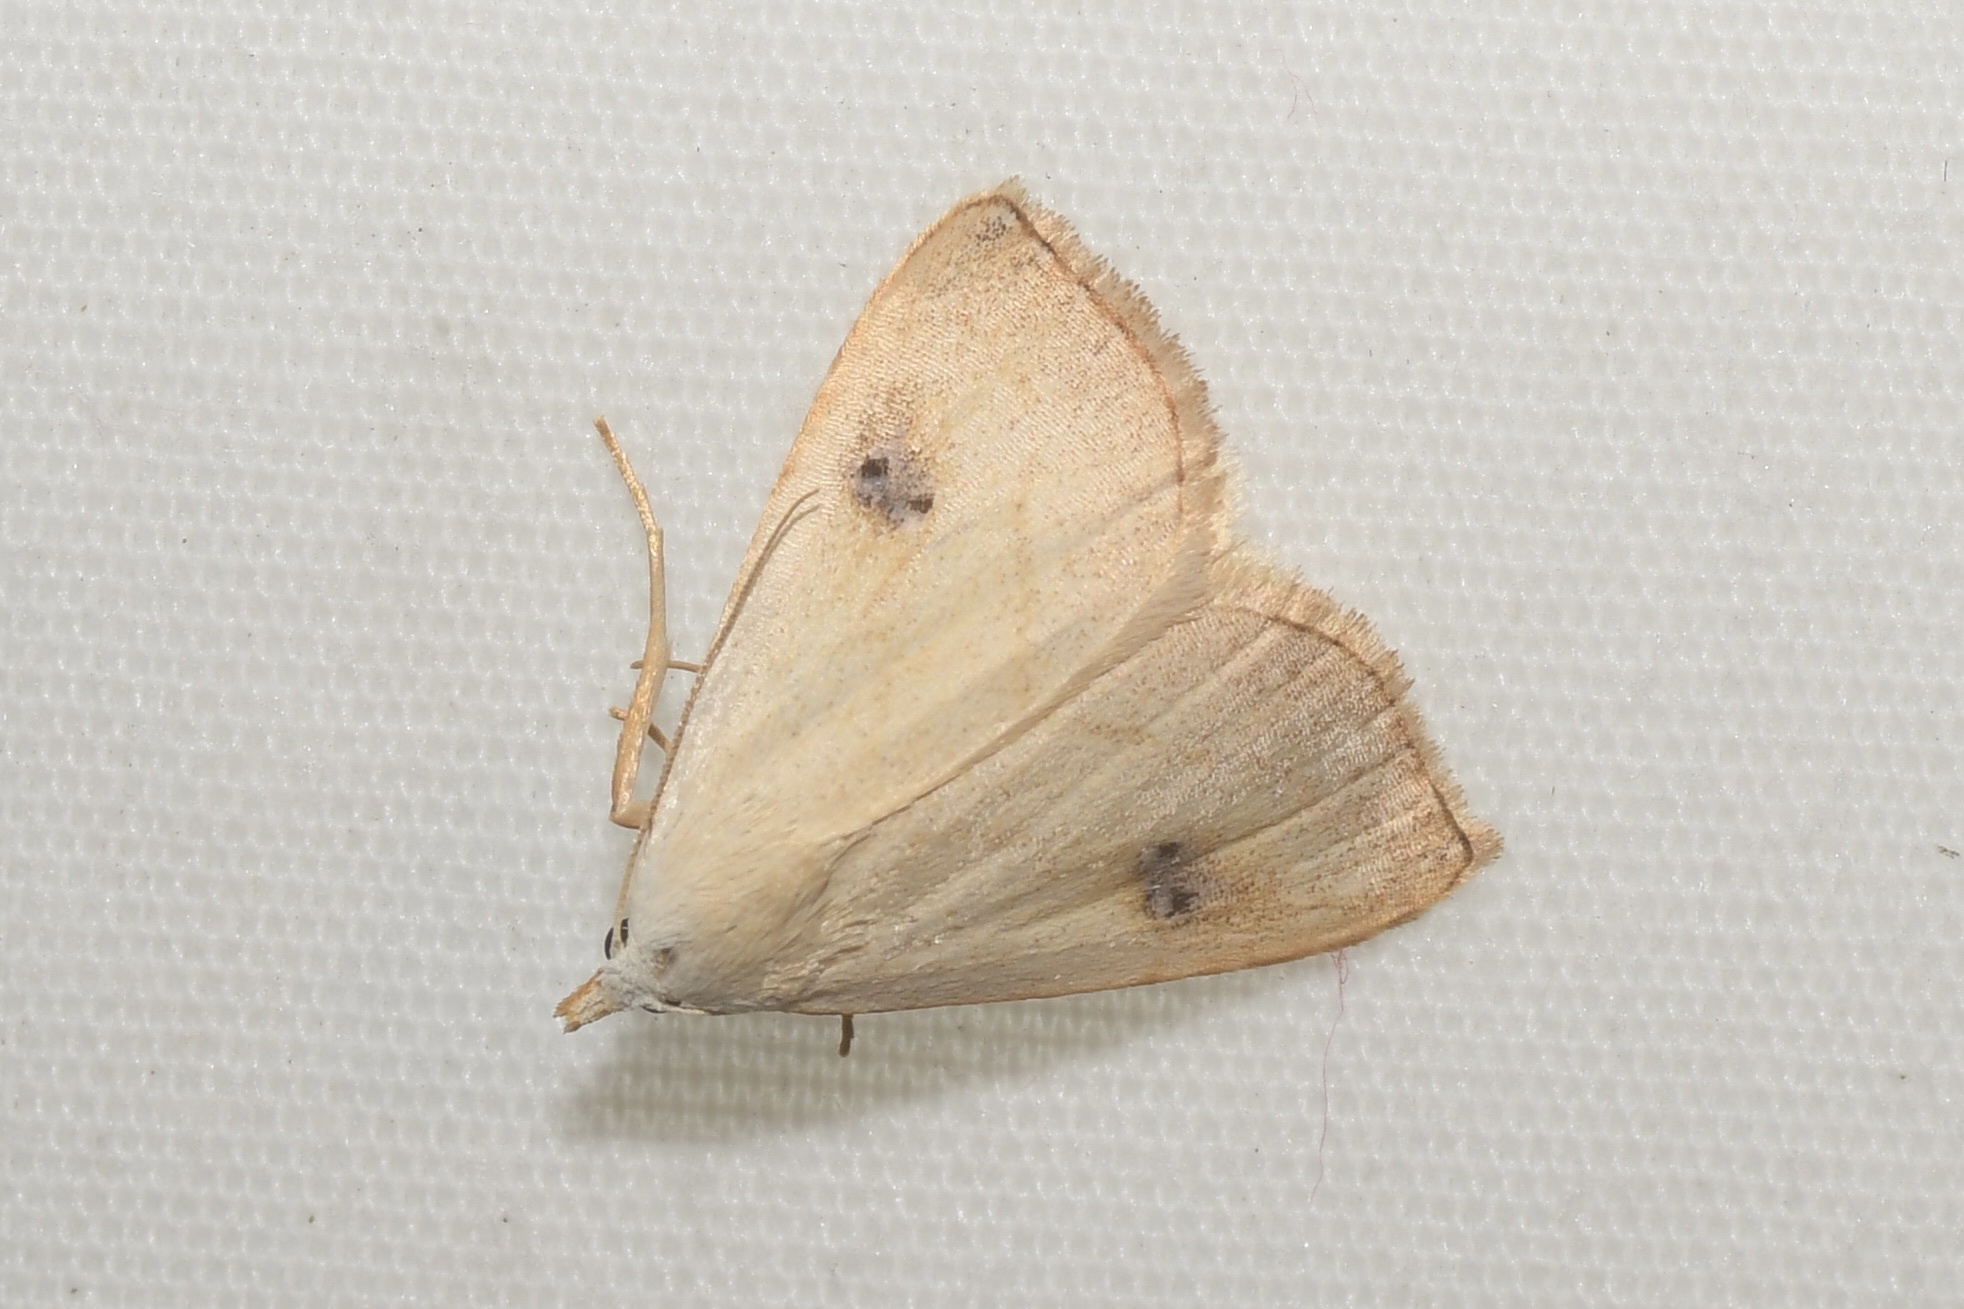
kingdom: Animalia
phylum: Arthropoda
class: Insecta
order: Lepidoptera
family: Erebidae
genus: Rivula
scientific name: Rivula propinqualis
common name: Spotted grass moth
